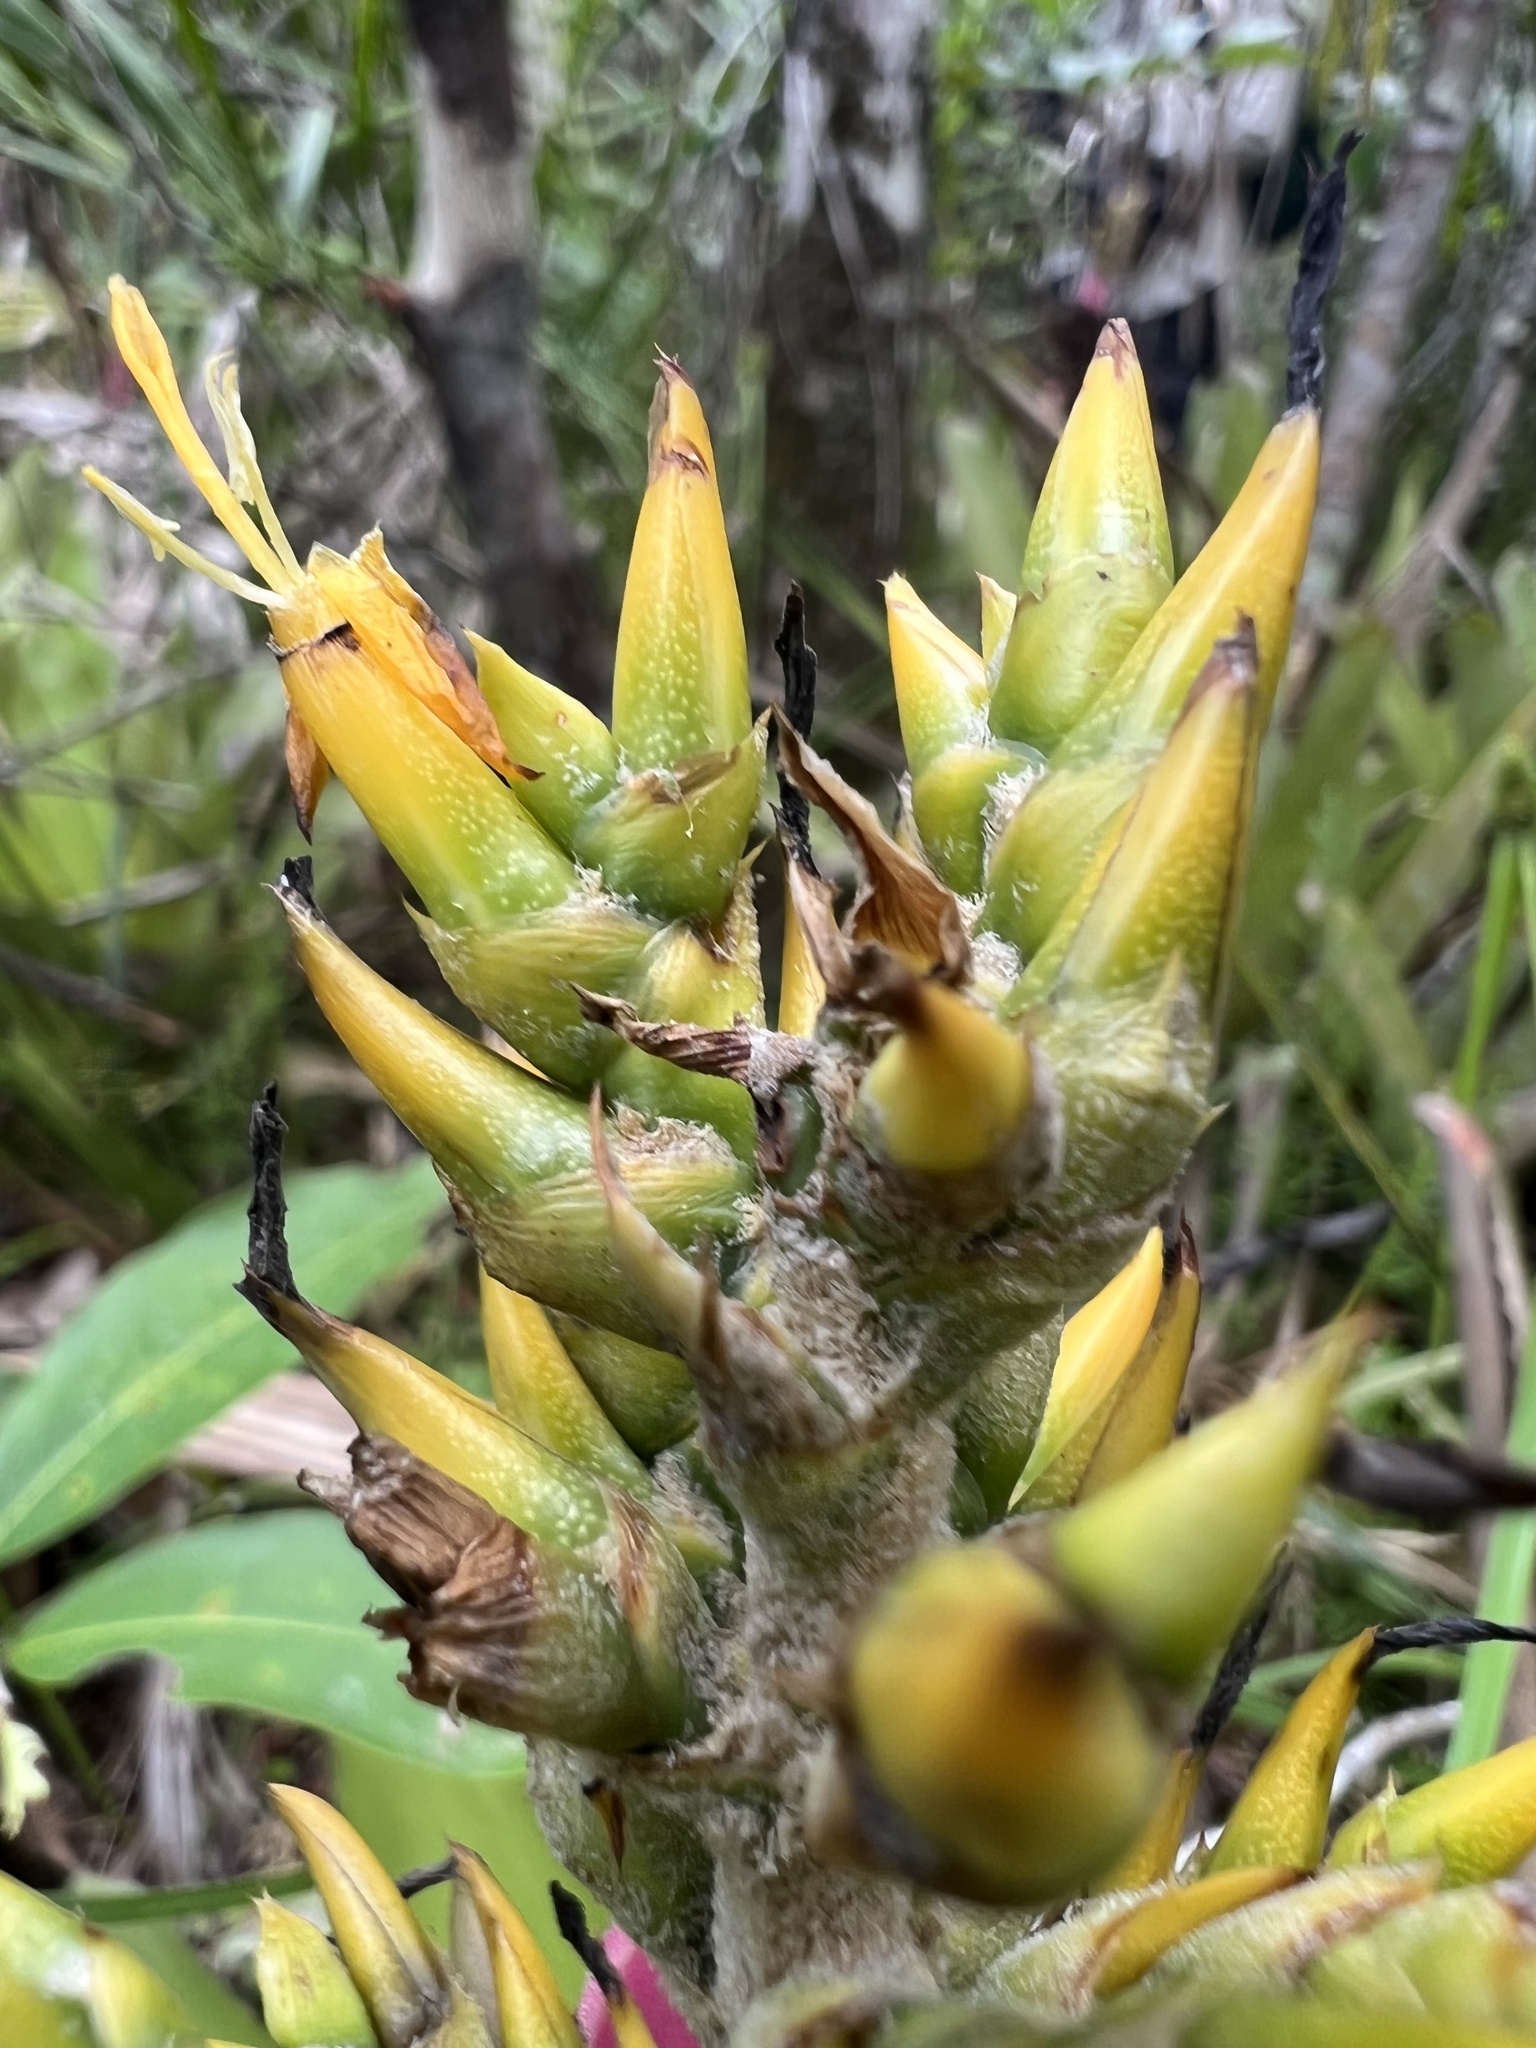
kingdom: Plantae
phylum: Tracheophyta
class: Liliopsida
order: Poales
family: Bromeliaceae
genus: Aechmea
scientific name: Aechmea stenosepala
